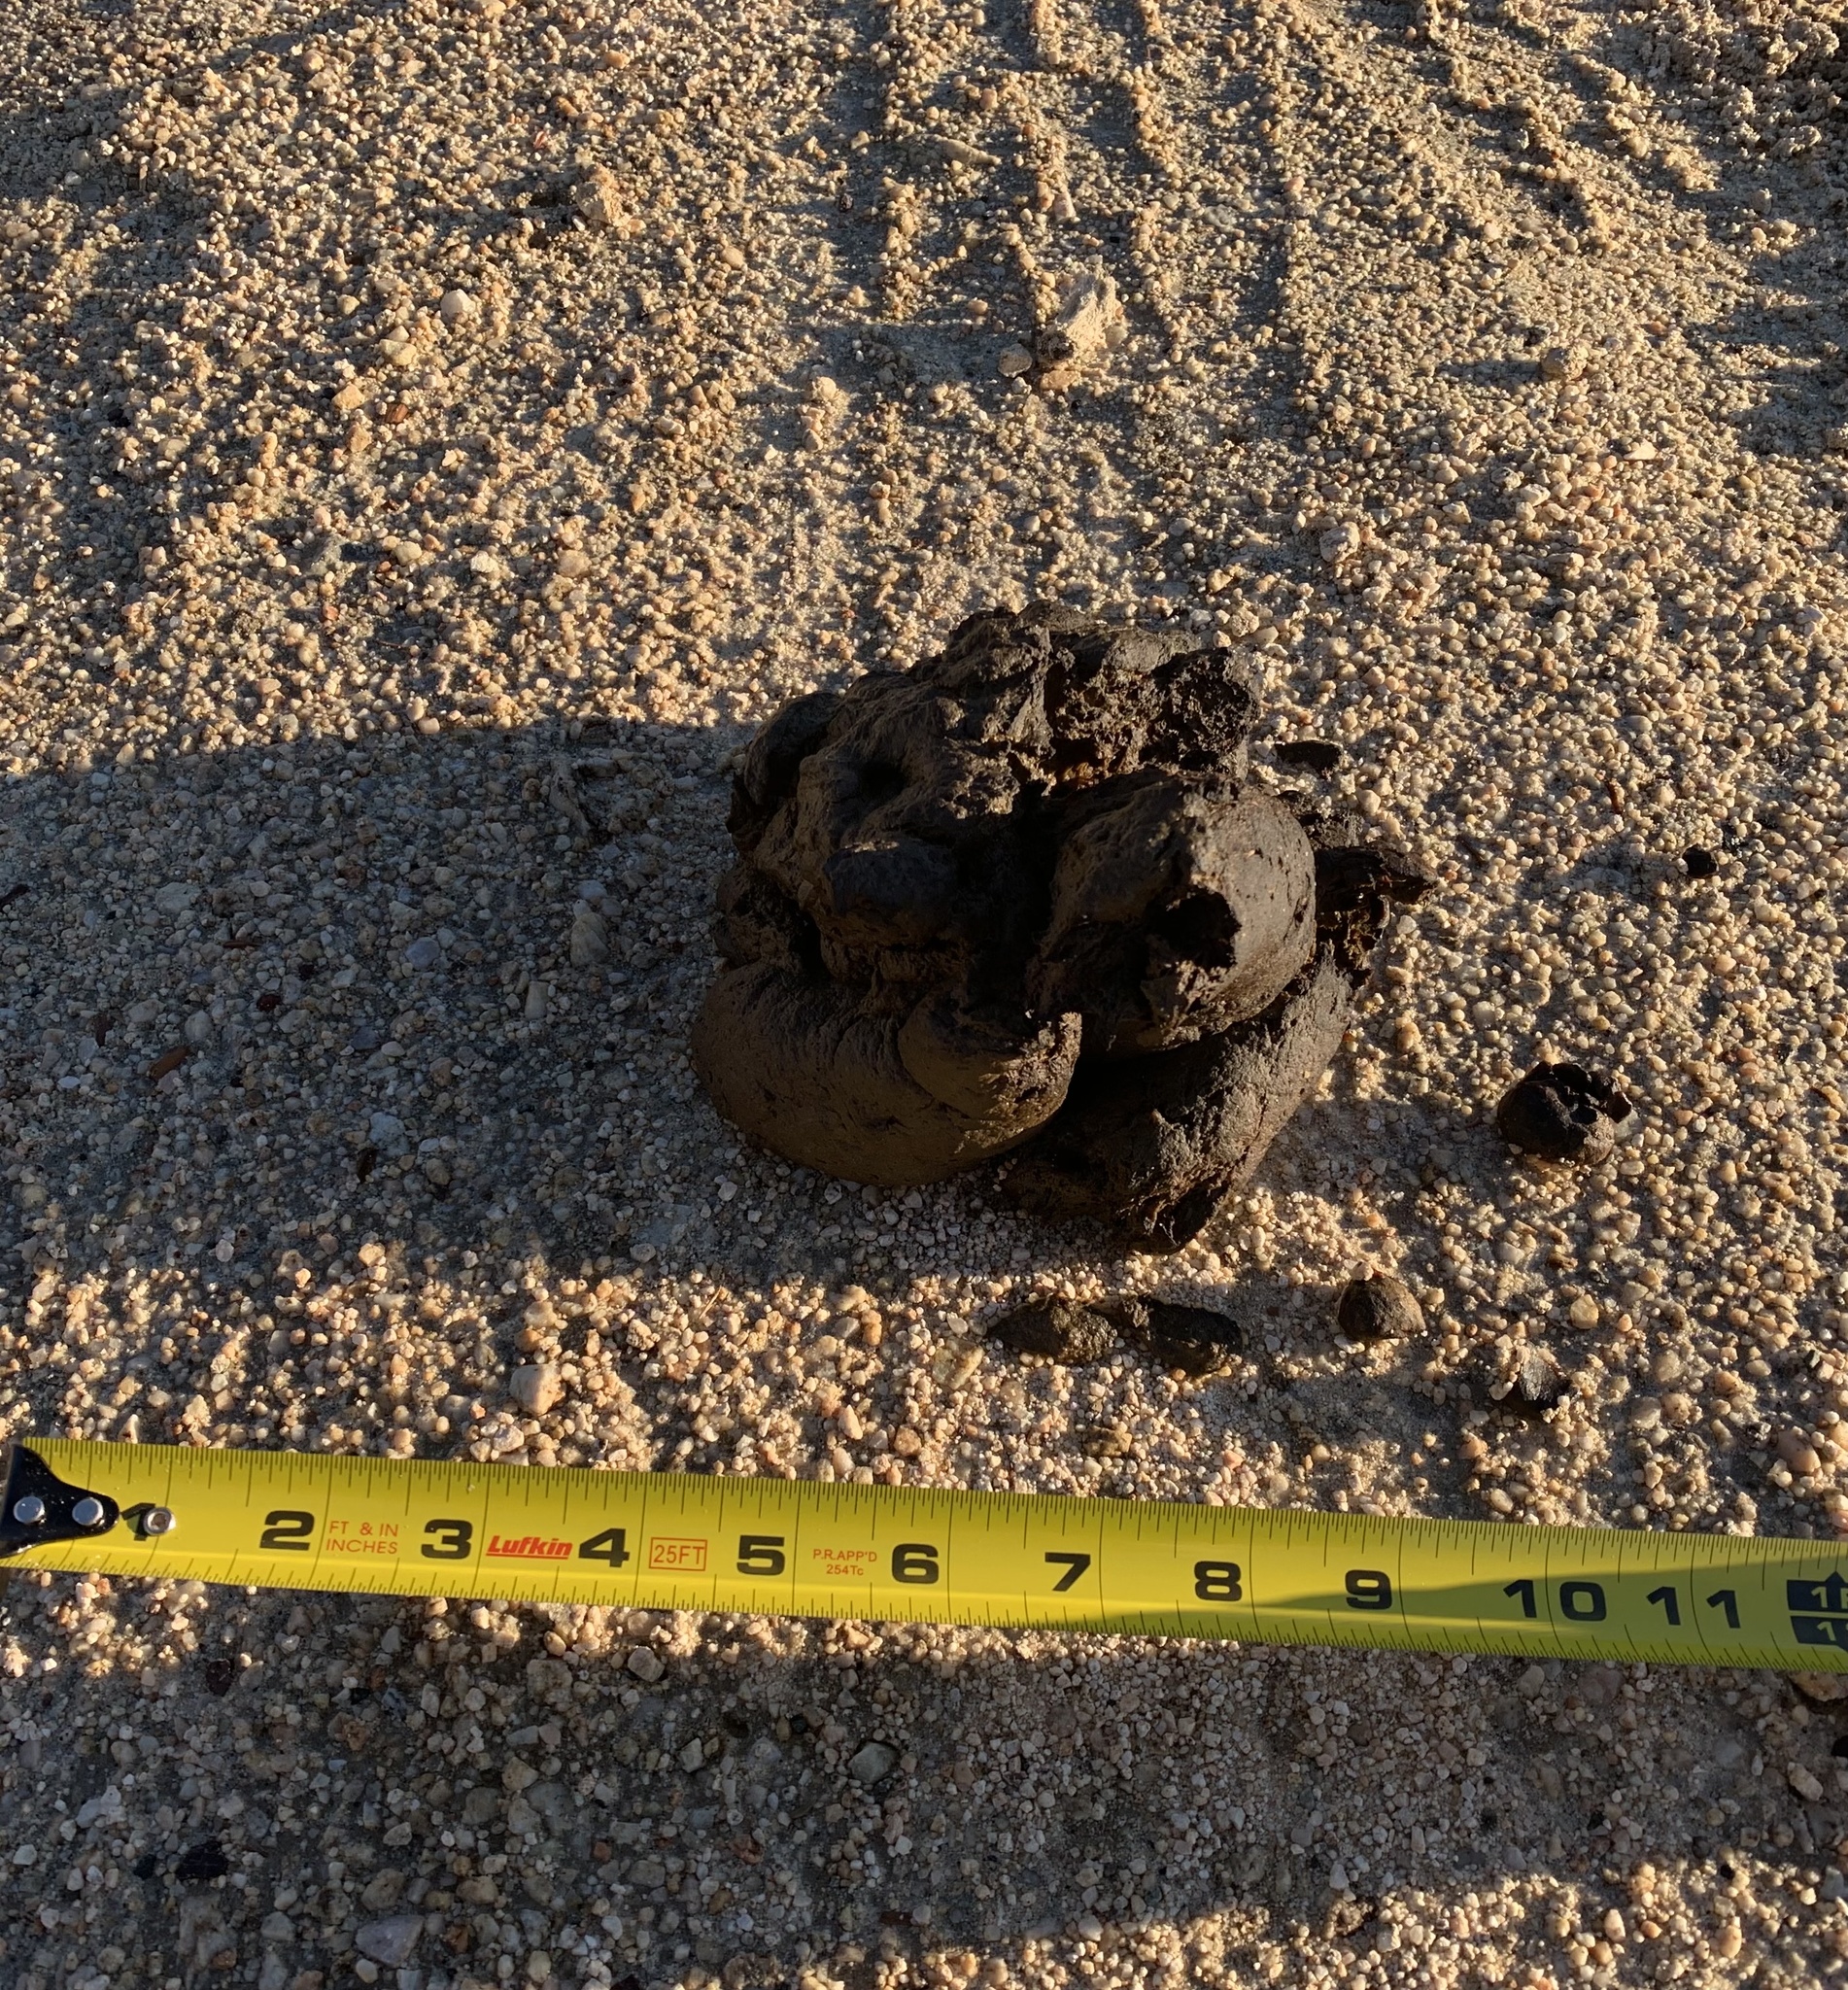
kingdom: Animalia
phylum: Chordata
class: Mammalia
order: Carnivora
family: Ursidae
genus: Ursus
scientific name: Ursus americanus
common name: American black bear
